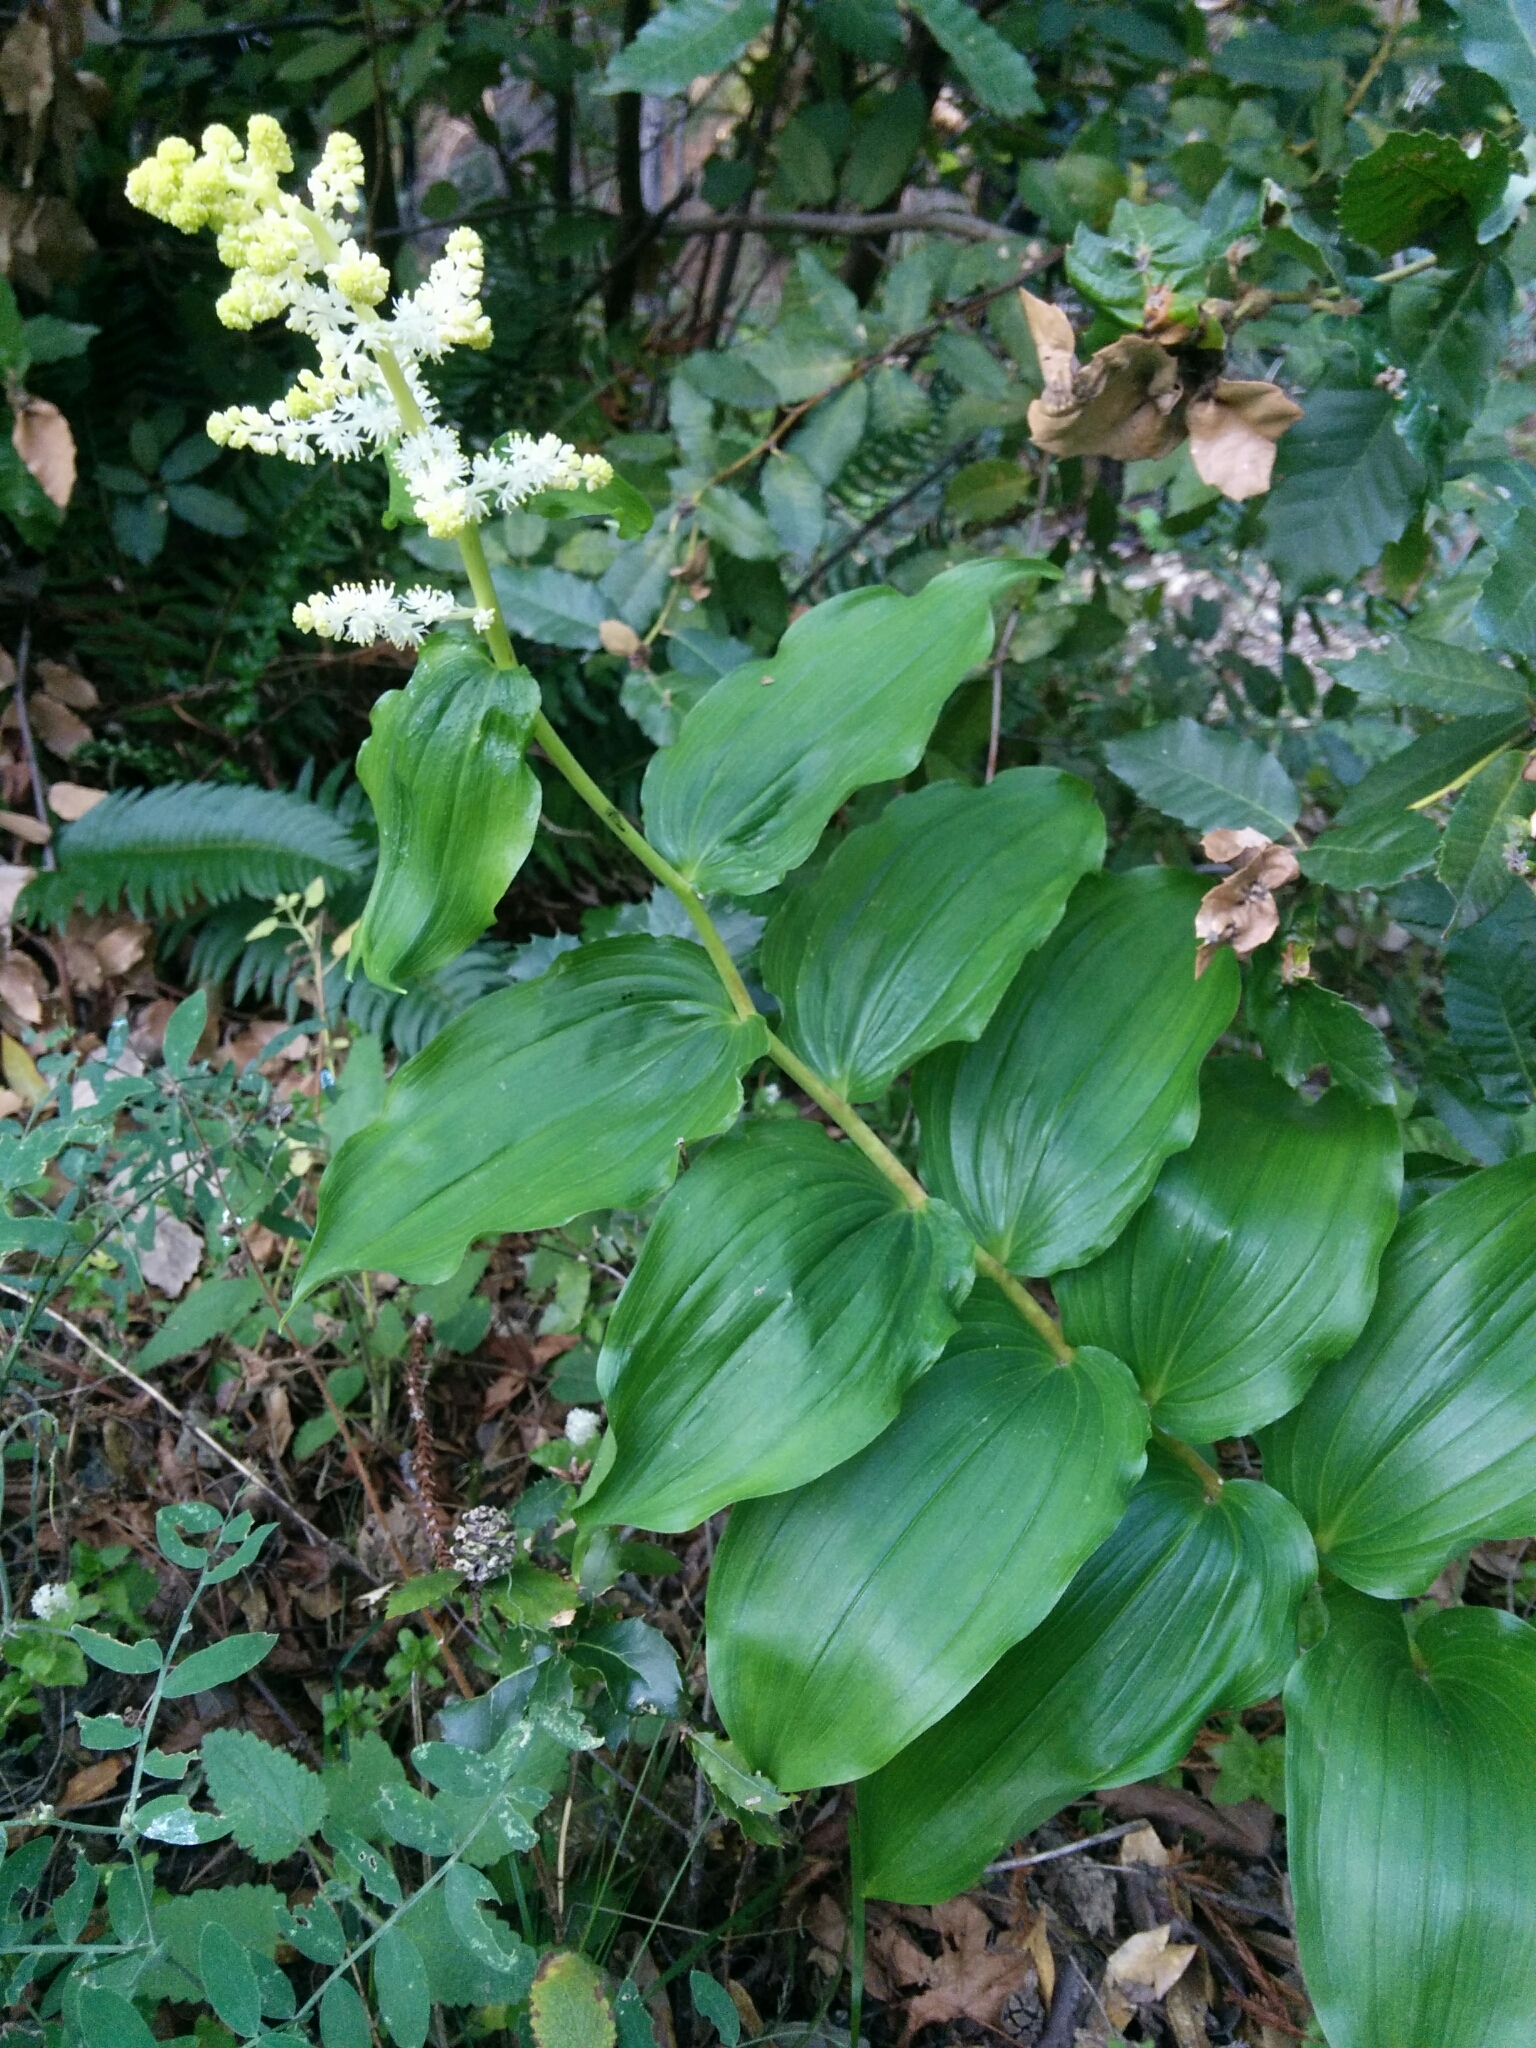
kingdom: Plantae
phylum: Tracheophyta
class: Liliopsida
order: Asparagales
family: Asparagaceae
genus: Maianthemum
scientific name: Maianthemum racemosum
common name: False spikenard
